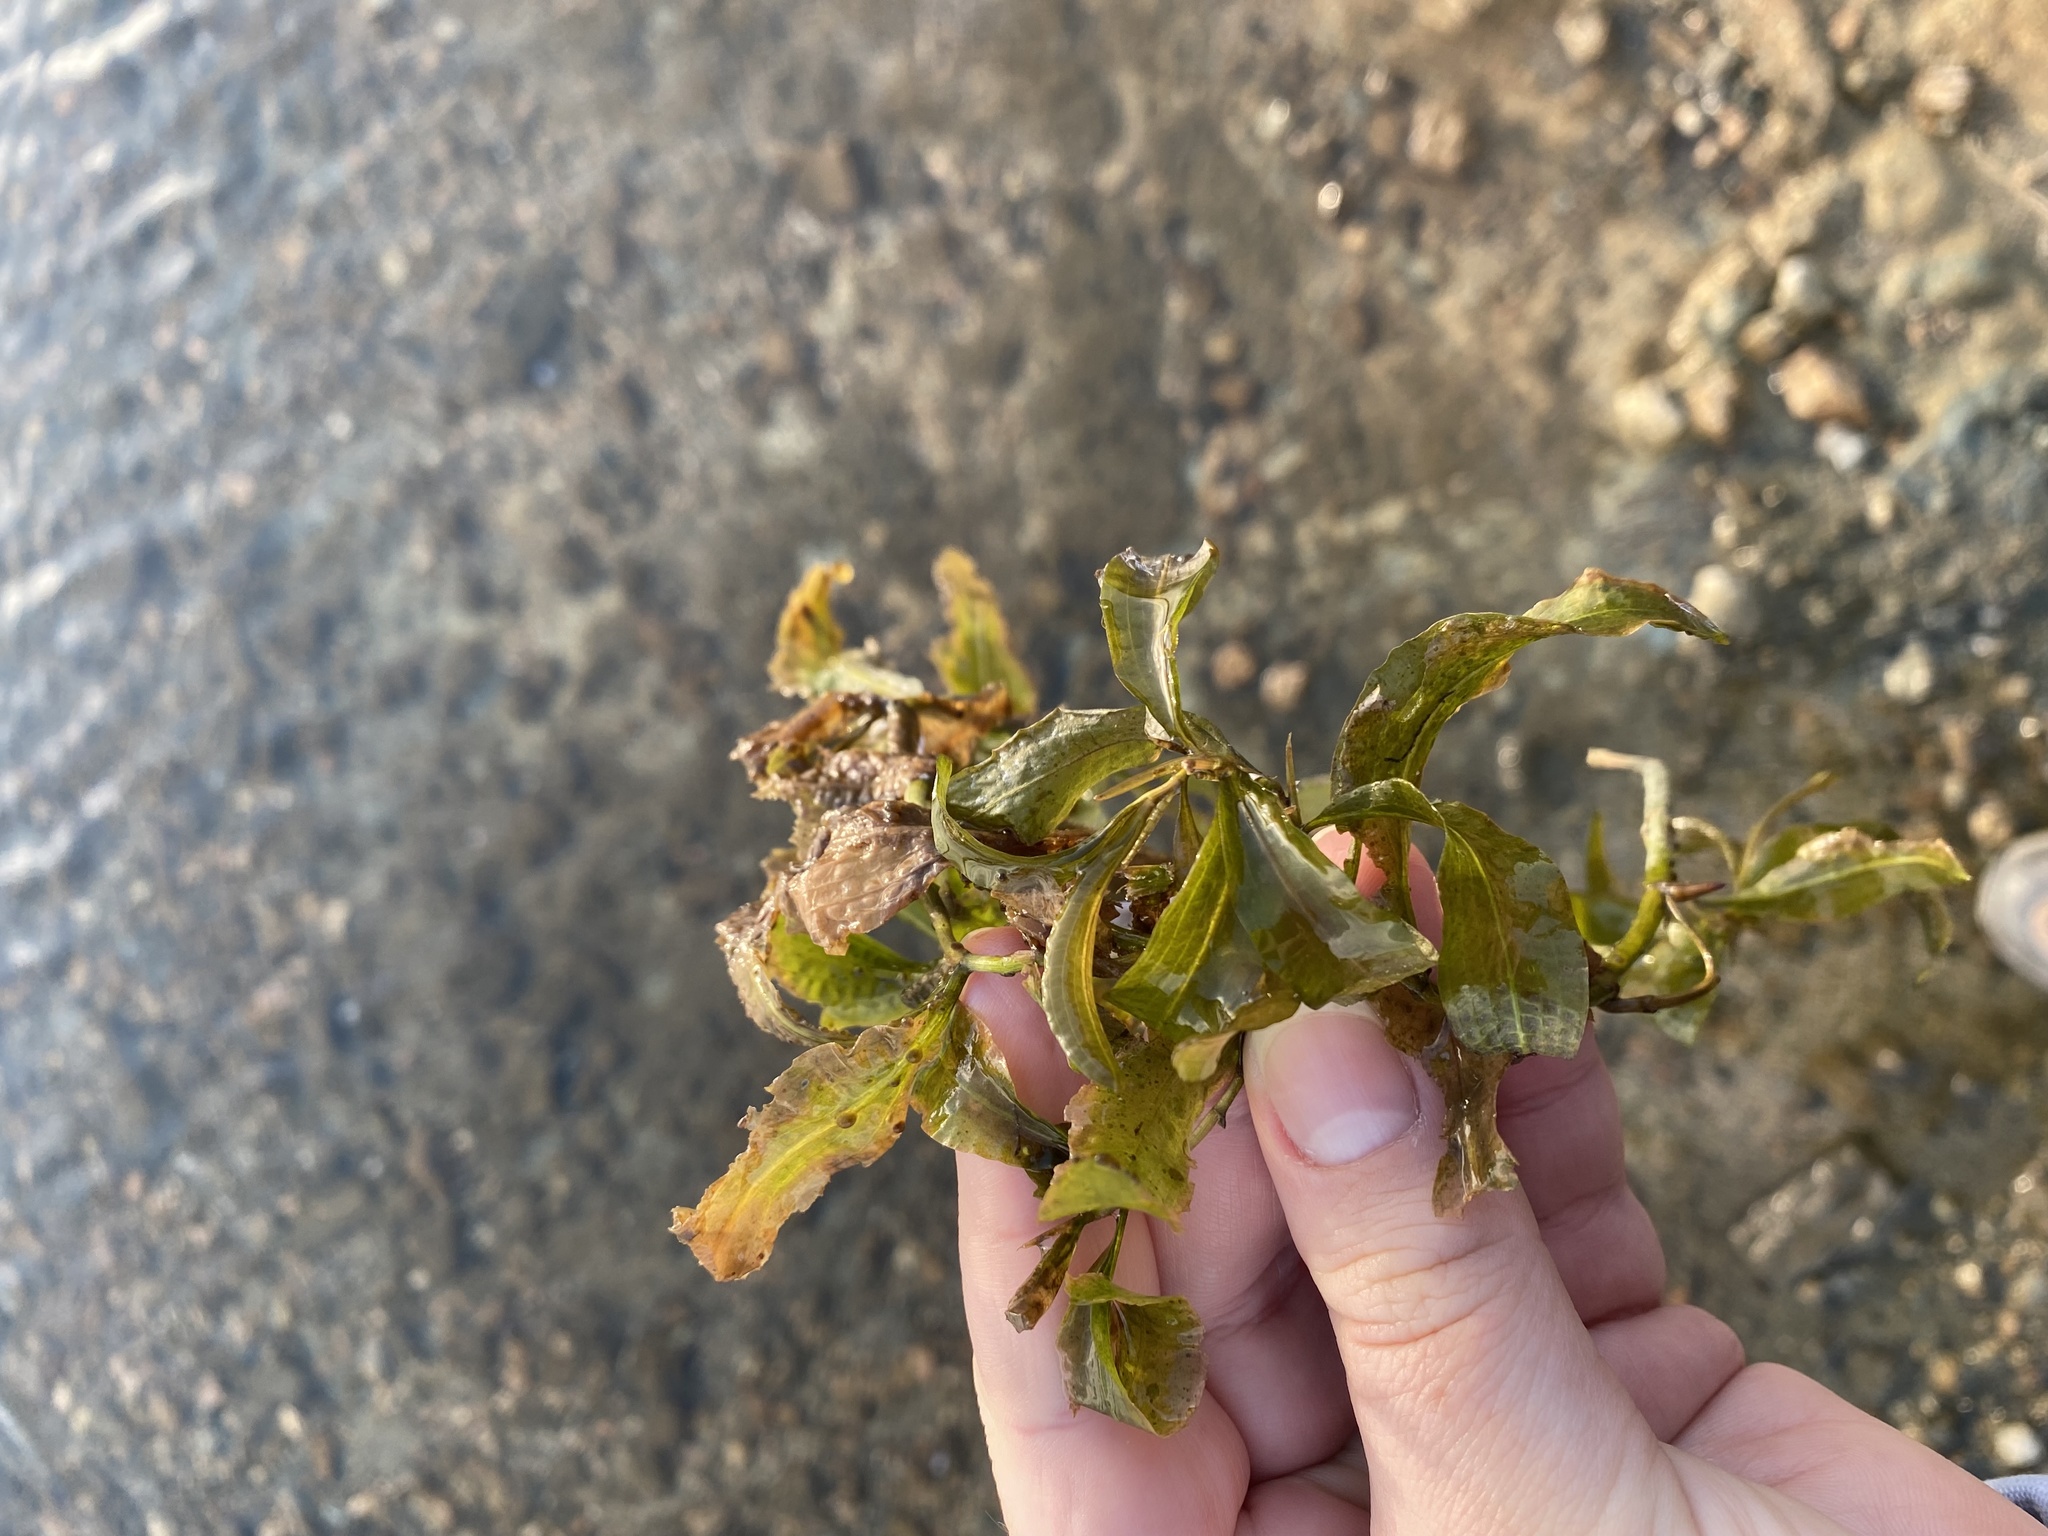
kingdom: Plantae
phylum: Tracheophyta
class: Liliopsida
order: Alismatales
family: Potamogetonaceae
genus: Potamogeton
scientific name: Potamogeton amplifolius
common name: Broad-leaved pondweed
